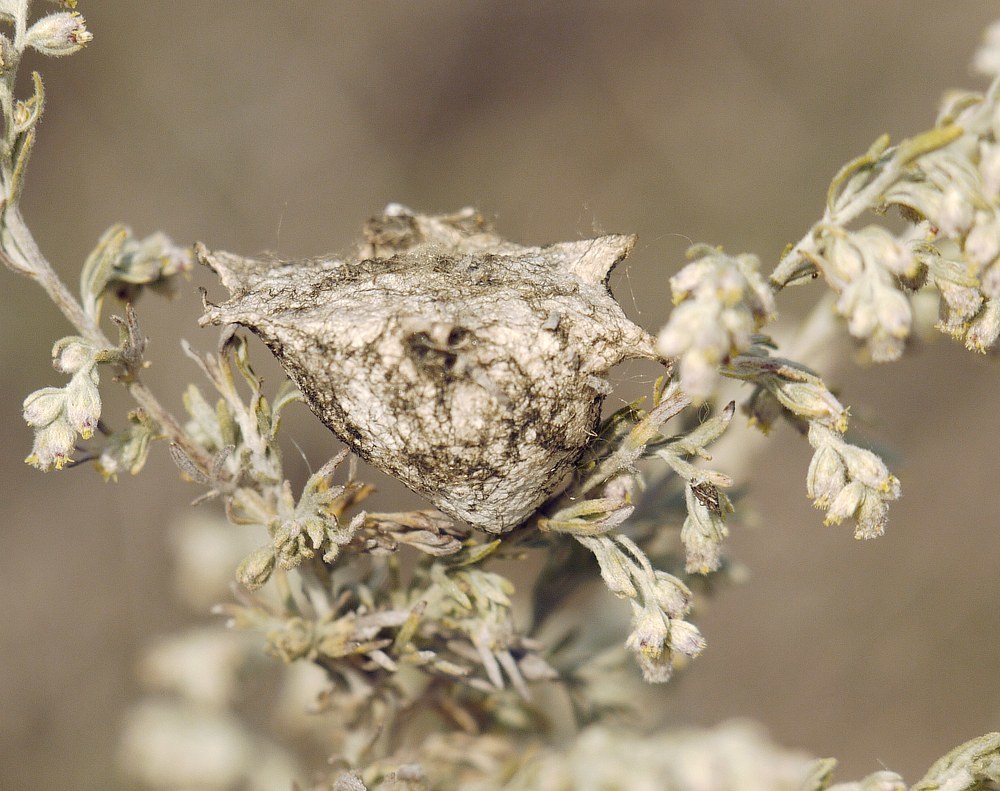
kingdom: Animalia
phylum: Arthropoda
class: Arachnida
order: Araneae
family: Araneidae
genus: Argiope
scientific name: Argiope lobata
